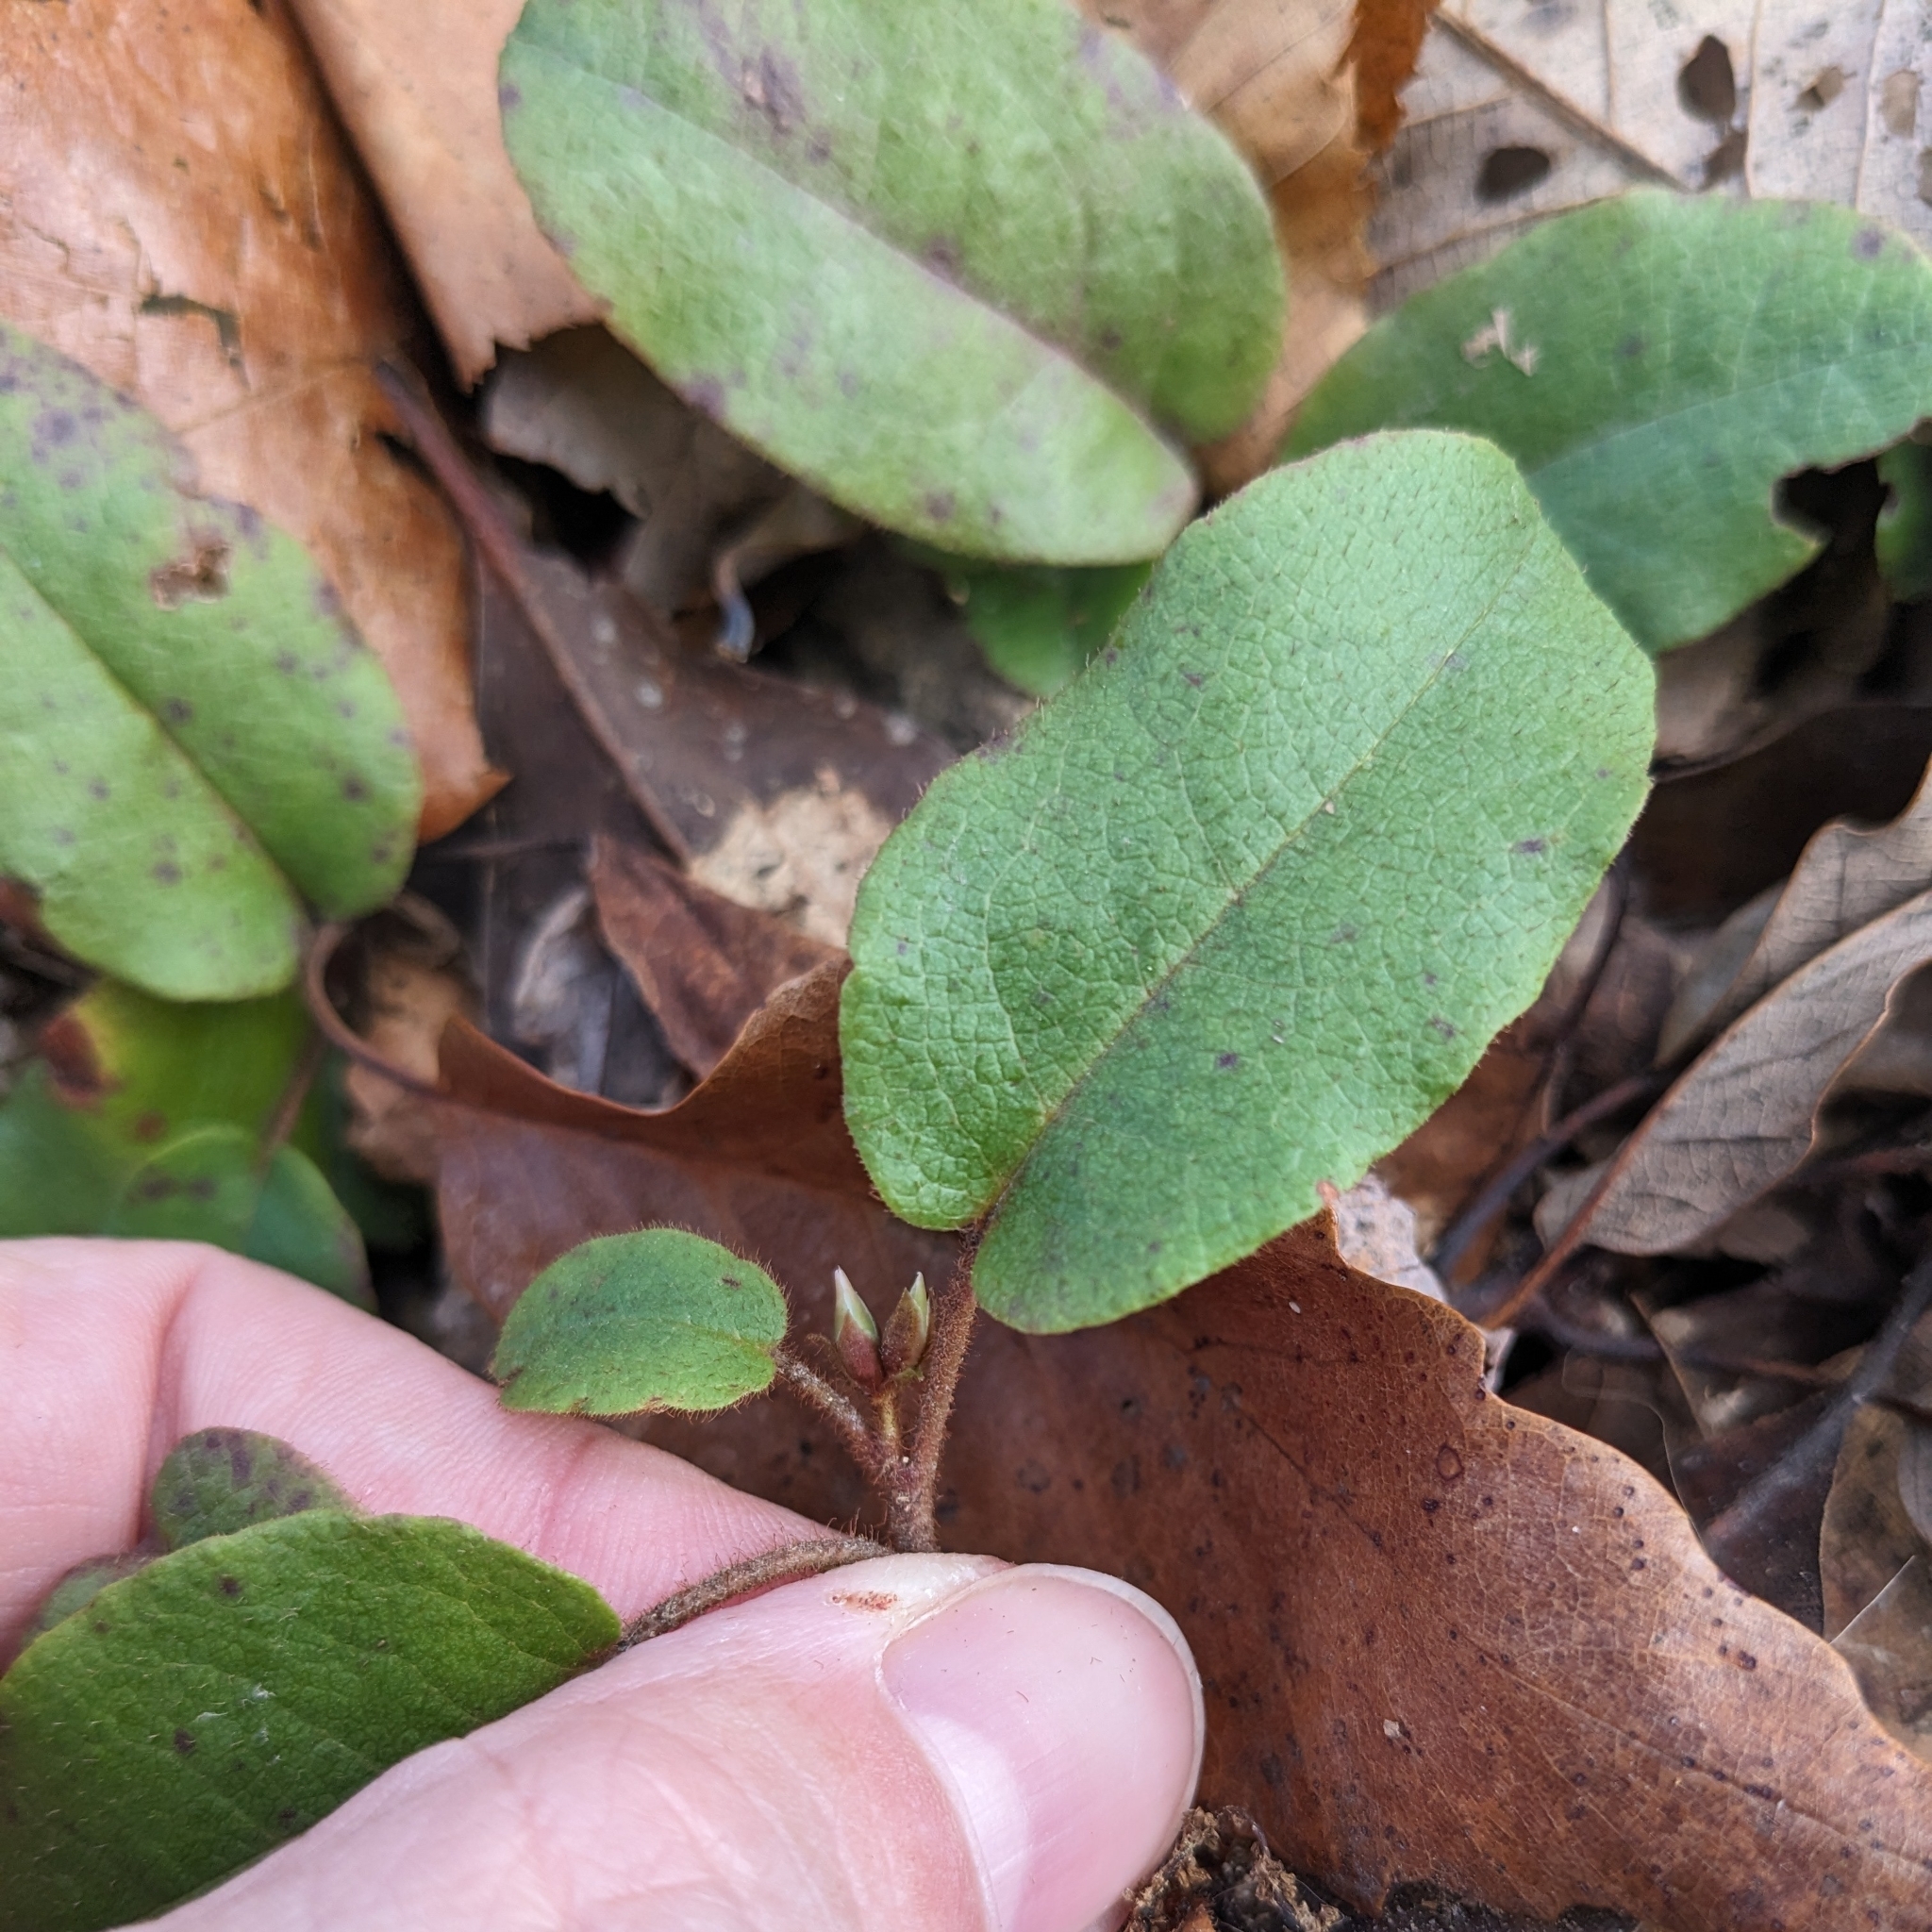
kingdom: Plantae
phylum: Tracheophyta
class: Magnoliopsida
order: Ericales
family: Ericaceae
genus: Epigaea
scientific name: Epigaea repens
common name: Gravelroot
